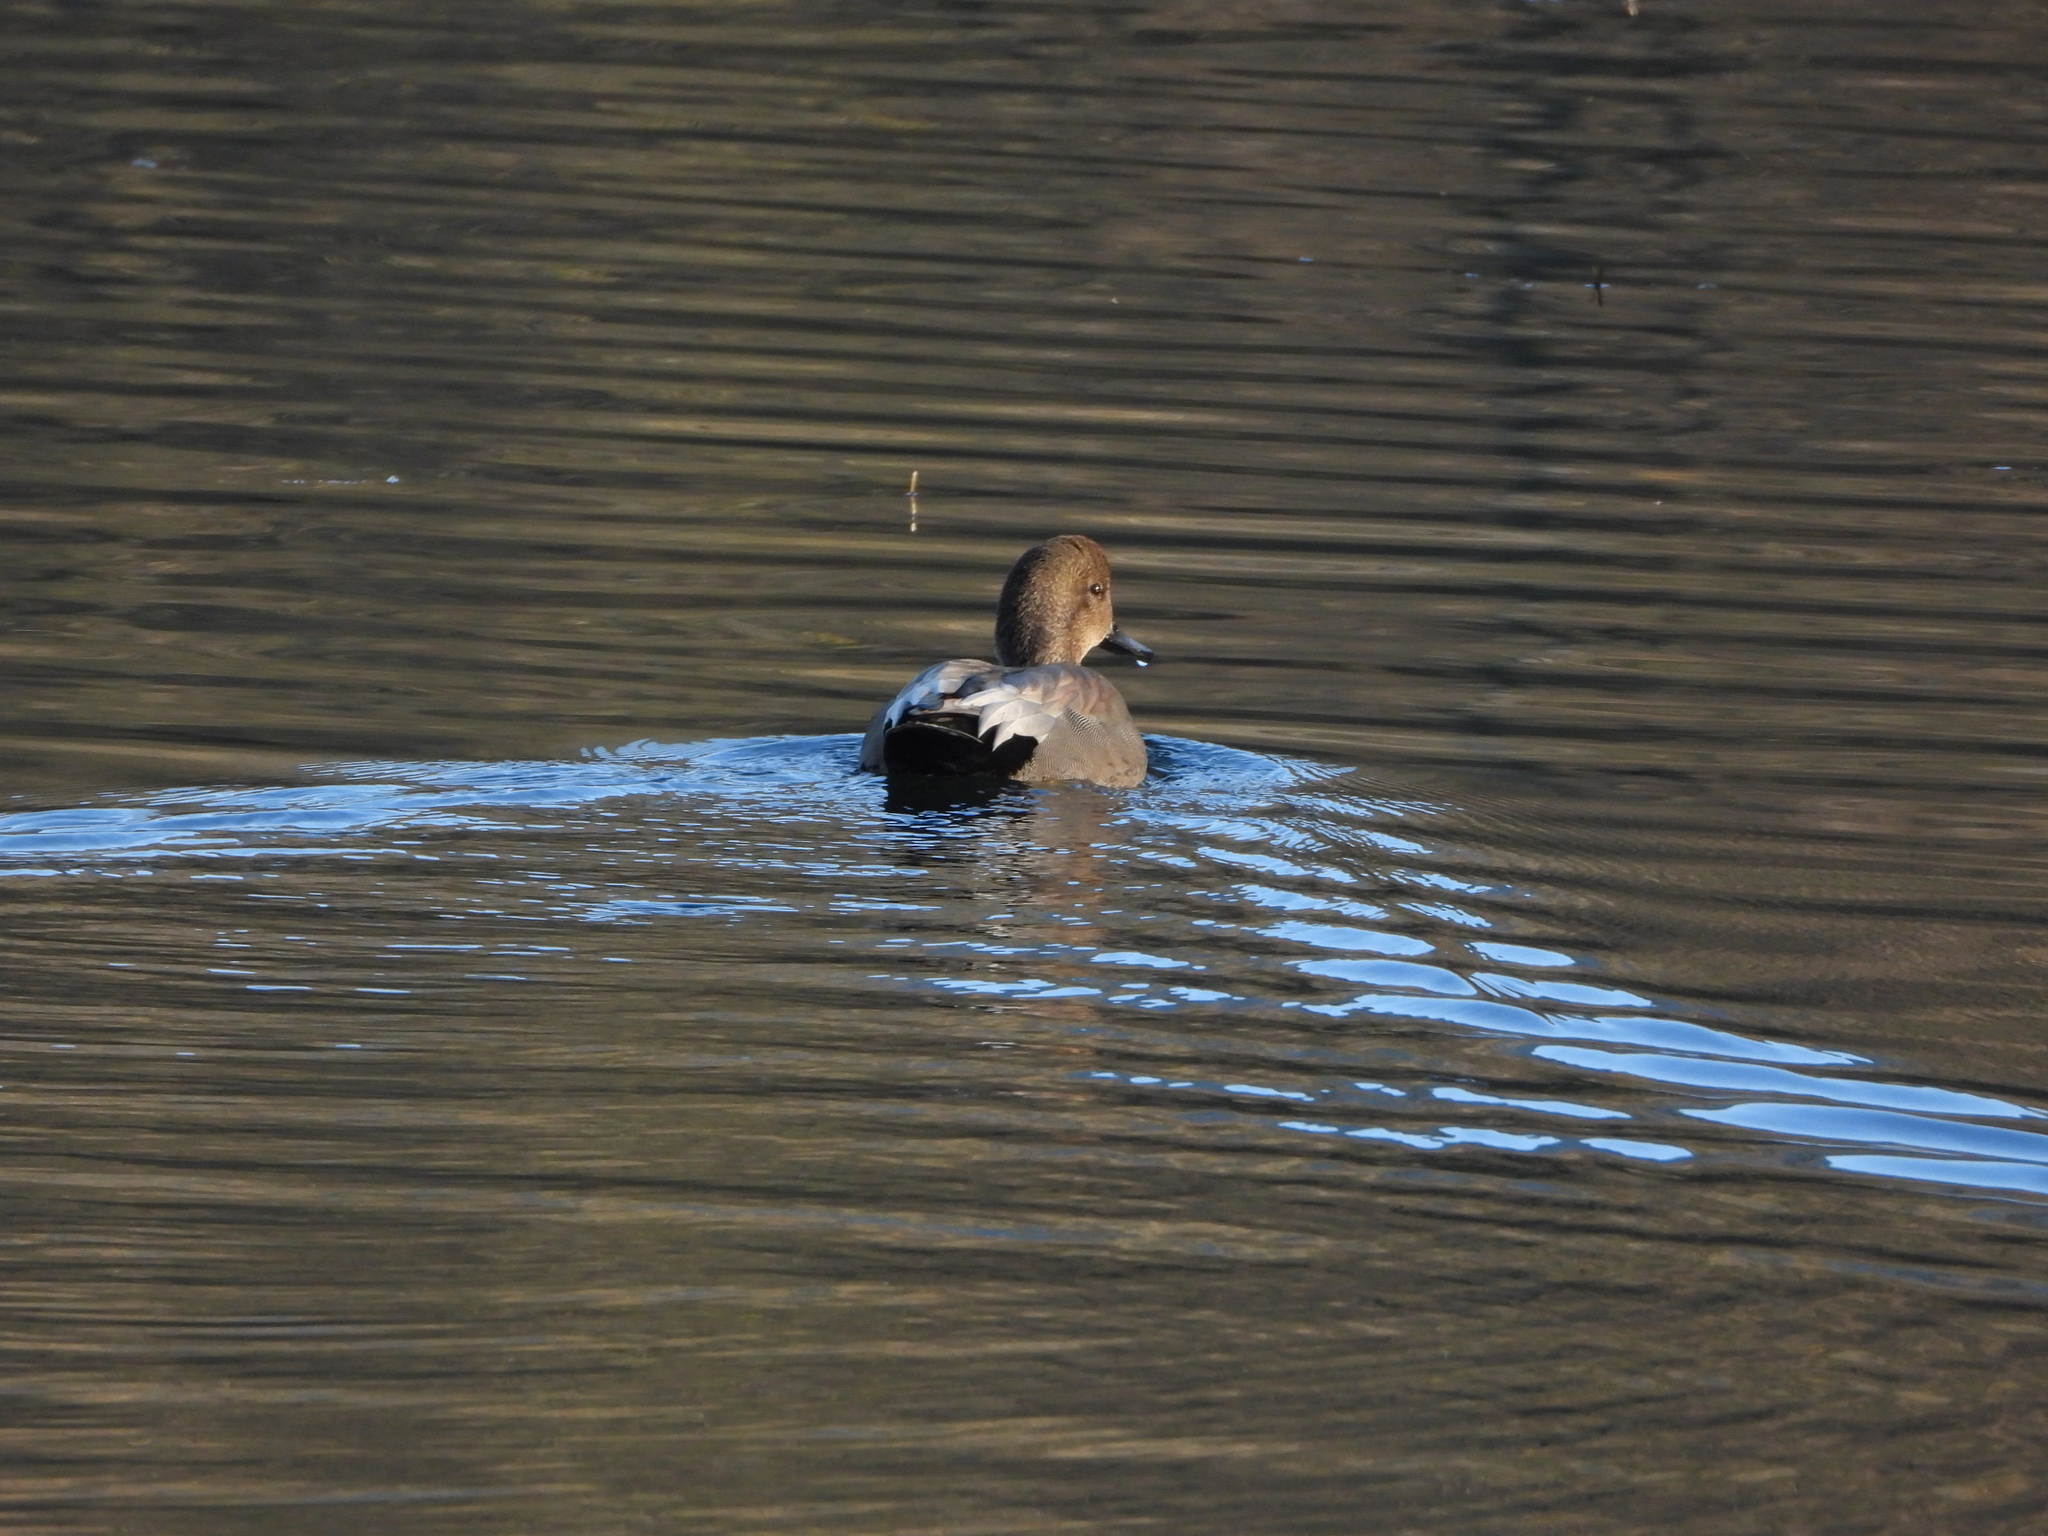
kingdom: Animalia
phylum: Chordata
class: Aves
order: Anseriformes
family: Anatidae
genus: Mareca
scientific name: Mareca strepera
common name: Gadwall
